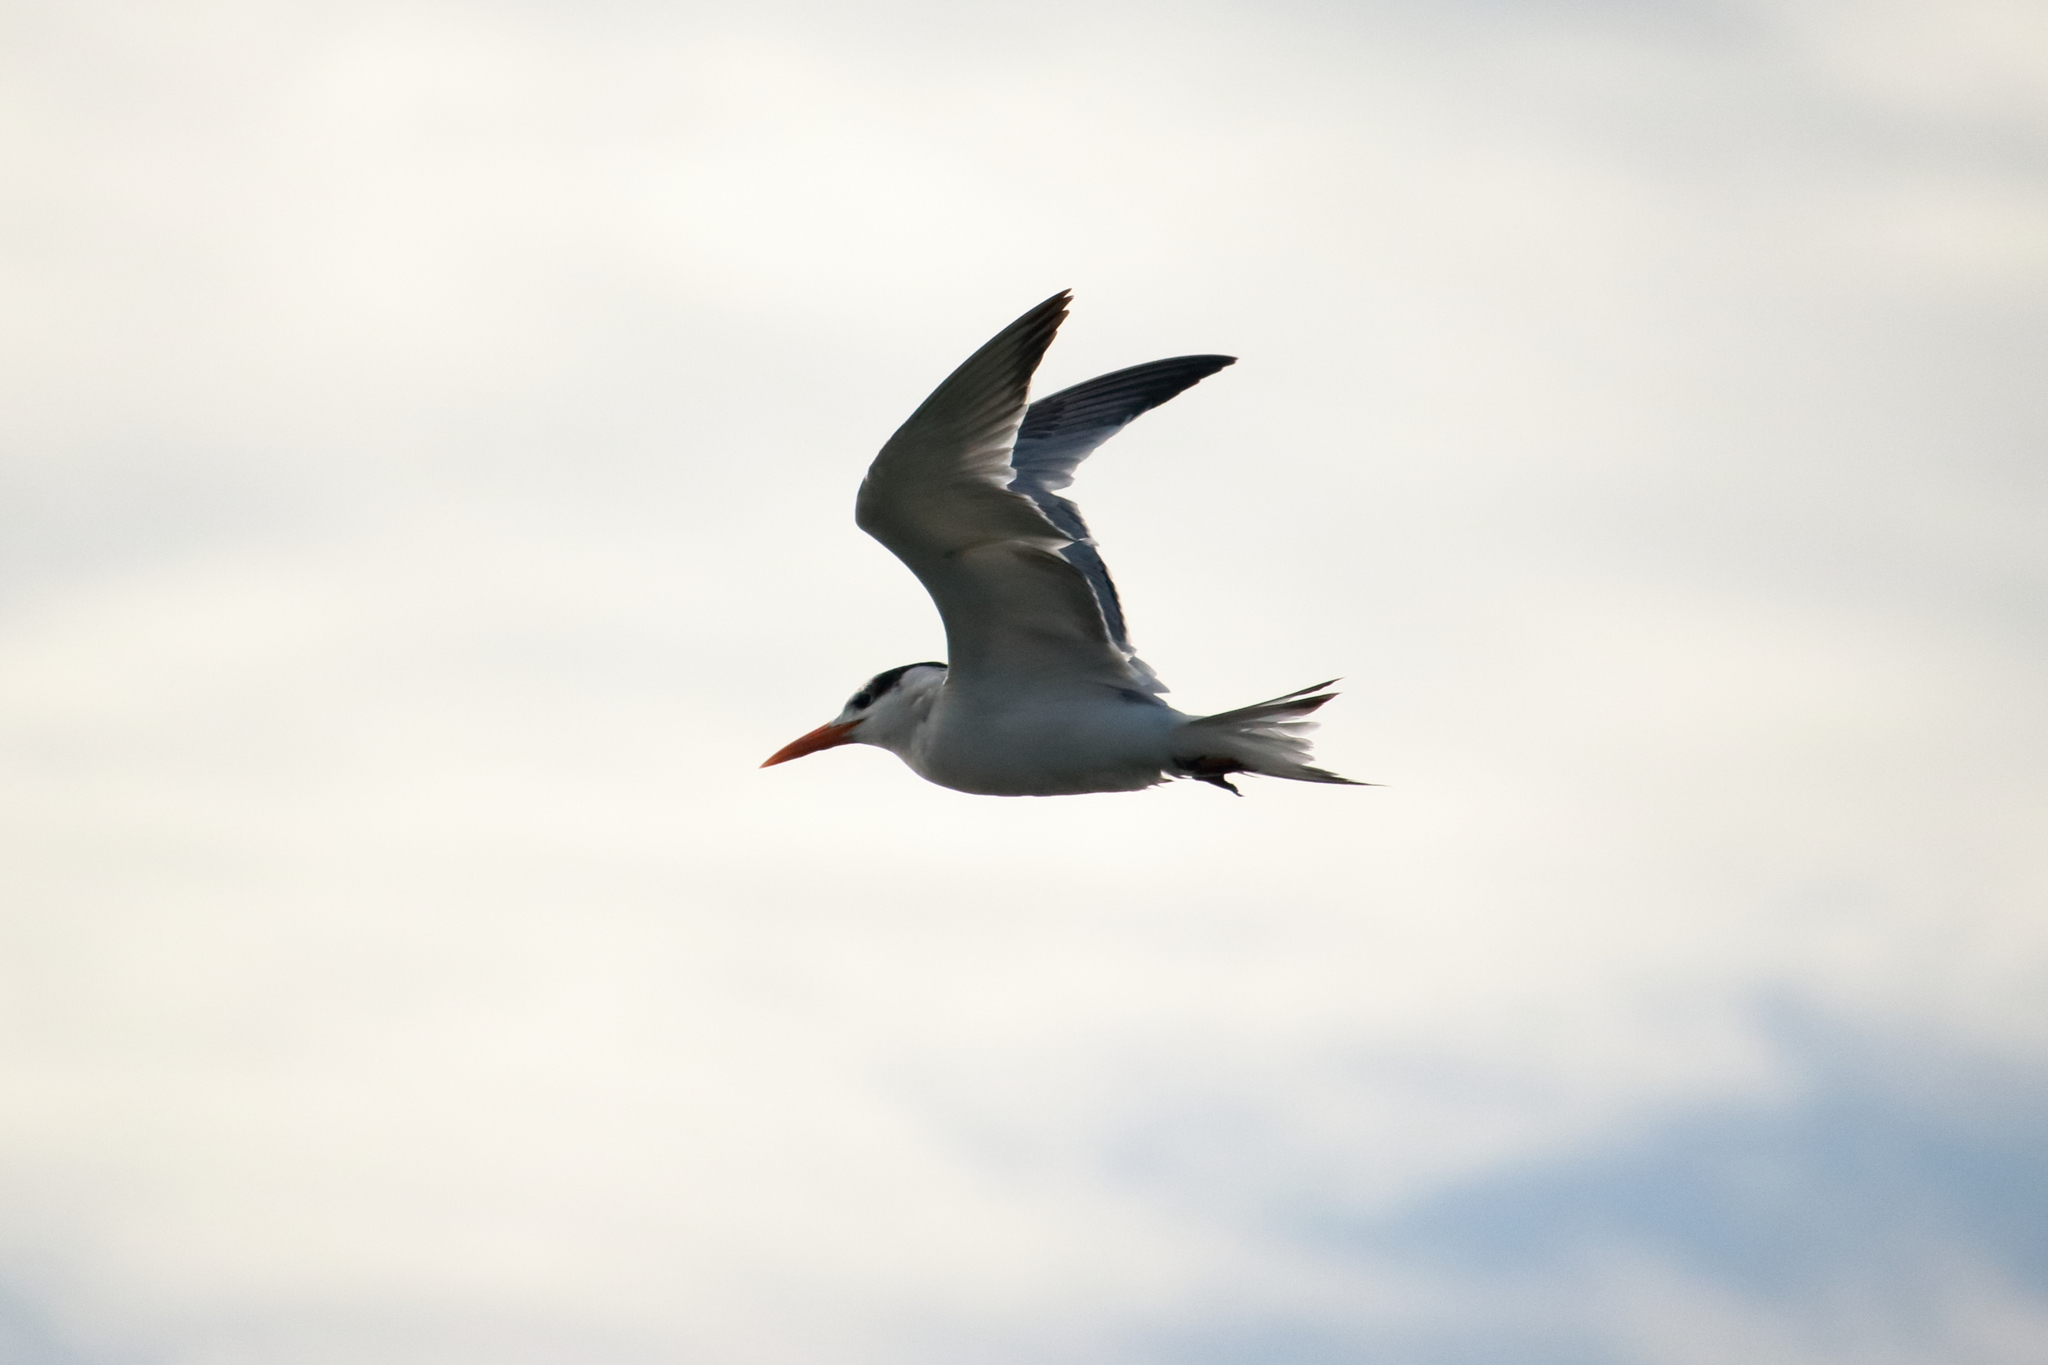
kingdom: Animalia
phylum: Chordata
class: Aves
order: Charadriiformes
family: Laridae
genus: Thalasseus
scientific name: Thalasseus maximus
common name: Royal tern
